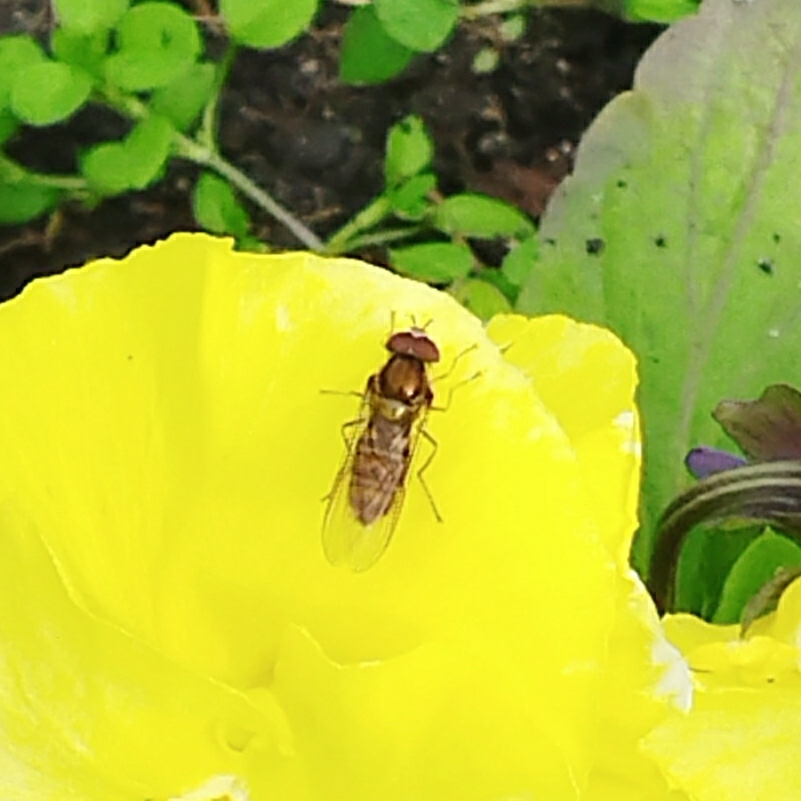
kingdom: Animalia
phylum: Arthropoda
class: Insecta
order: Diptera
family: Syrphidae
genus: Episyrphus
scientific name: Episyrphus balteatus
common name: Marmalade hoverfly
